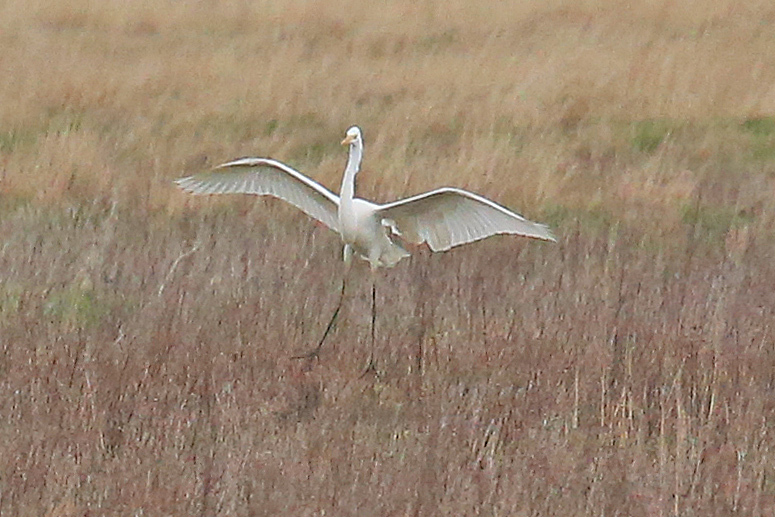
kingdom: Animalia
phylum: Chordata
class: Aves
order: Pelecaniformes
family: Ardeidae
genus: Ardea
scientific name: Ardea alba
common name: Great egret
